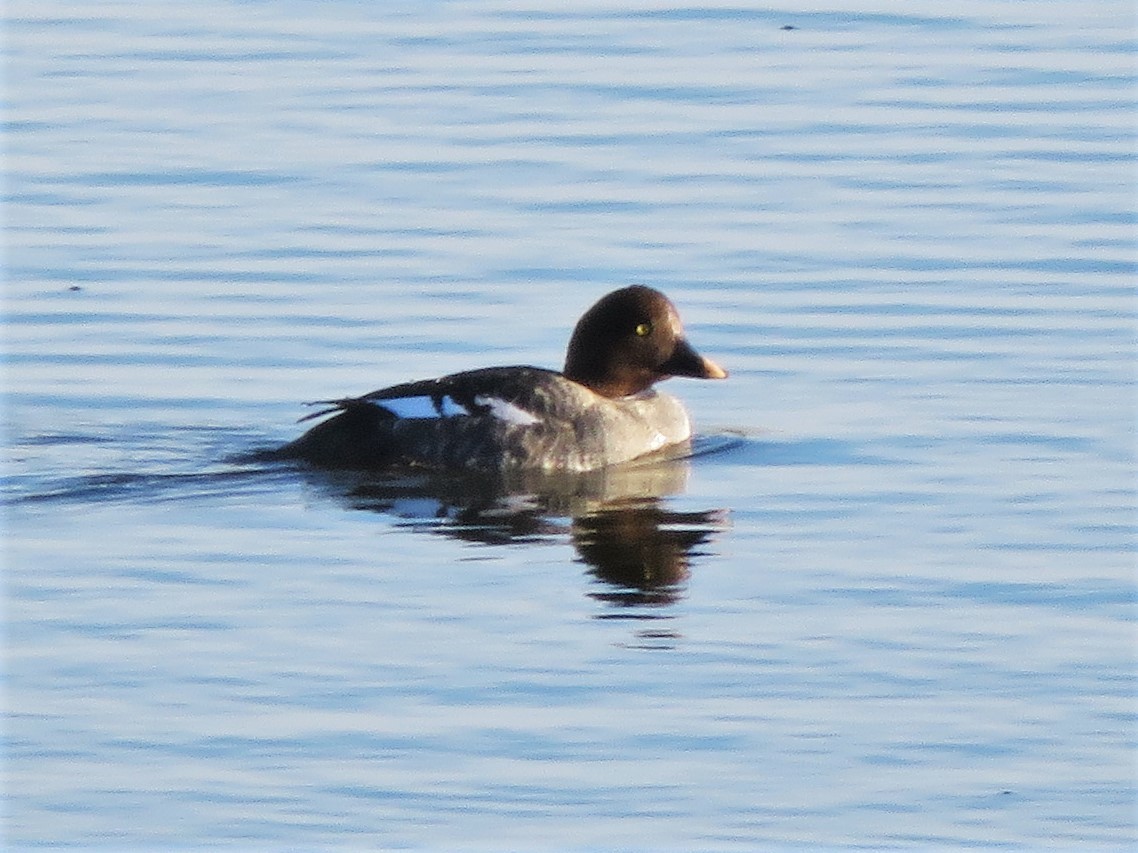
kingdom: Animalia
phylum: Chordata
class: Aves
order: Anseriformes
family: Anatidae
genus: Bucephala
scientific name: Bucephala clangula
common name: Common goldeneye
